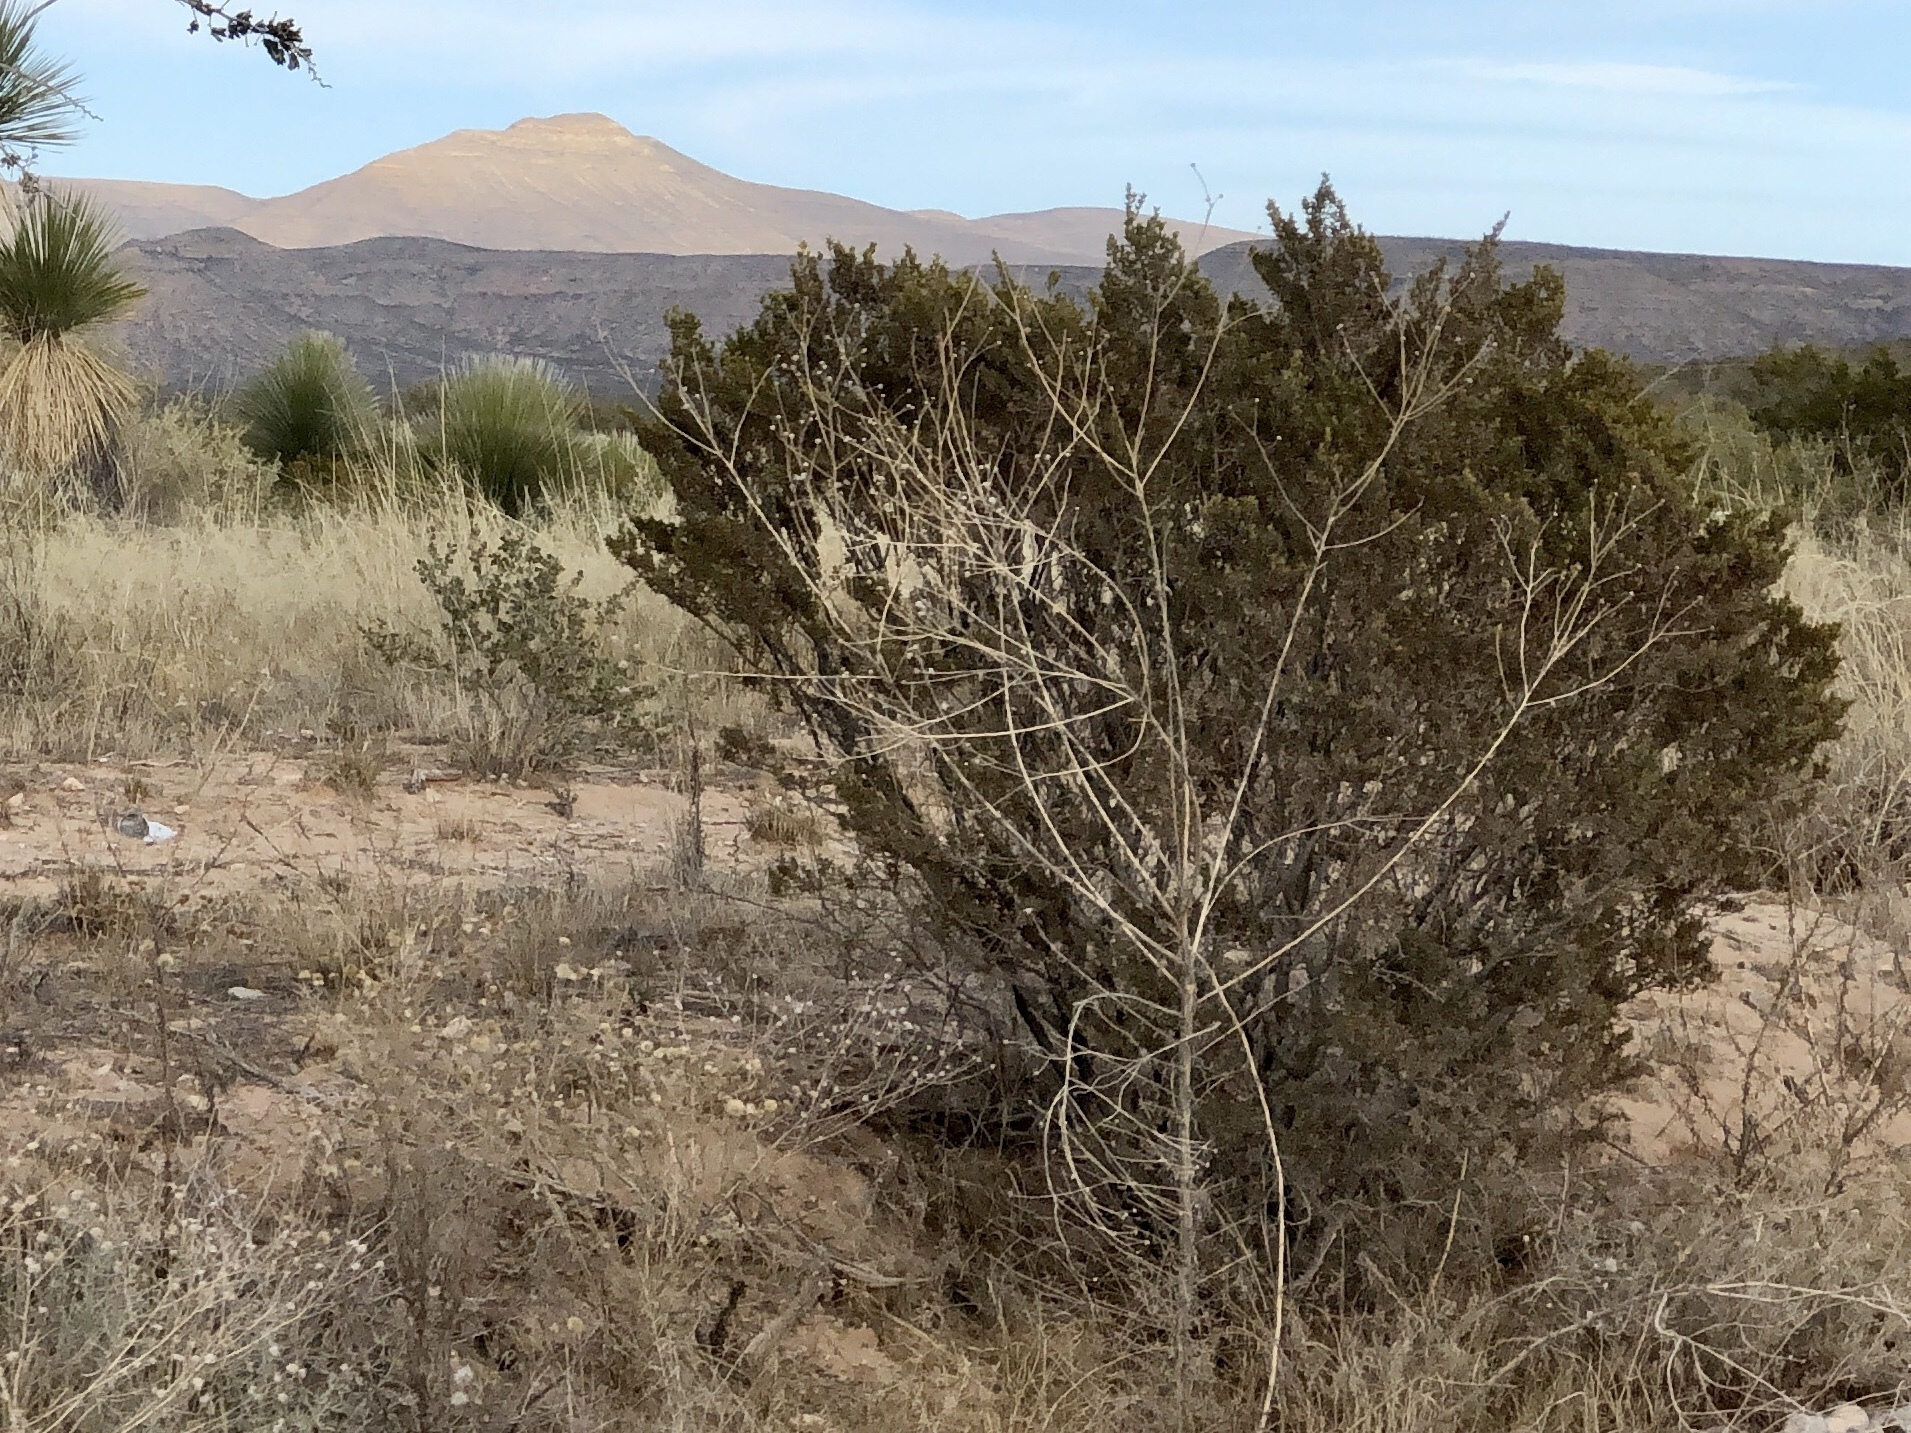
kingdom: Plantae
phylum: Tracheophyta
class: Magnoliopsida
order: Zygophyllales
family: Zygophyllaceae
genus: Larrea
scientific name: Larrea tridentata
